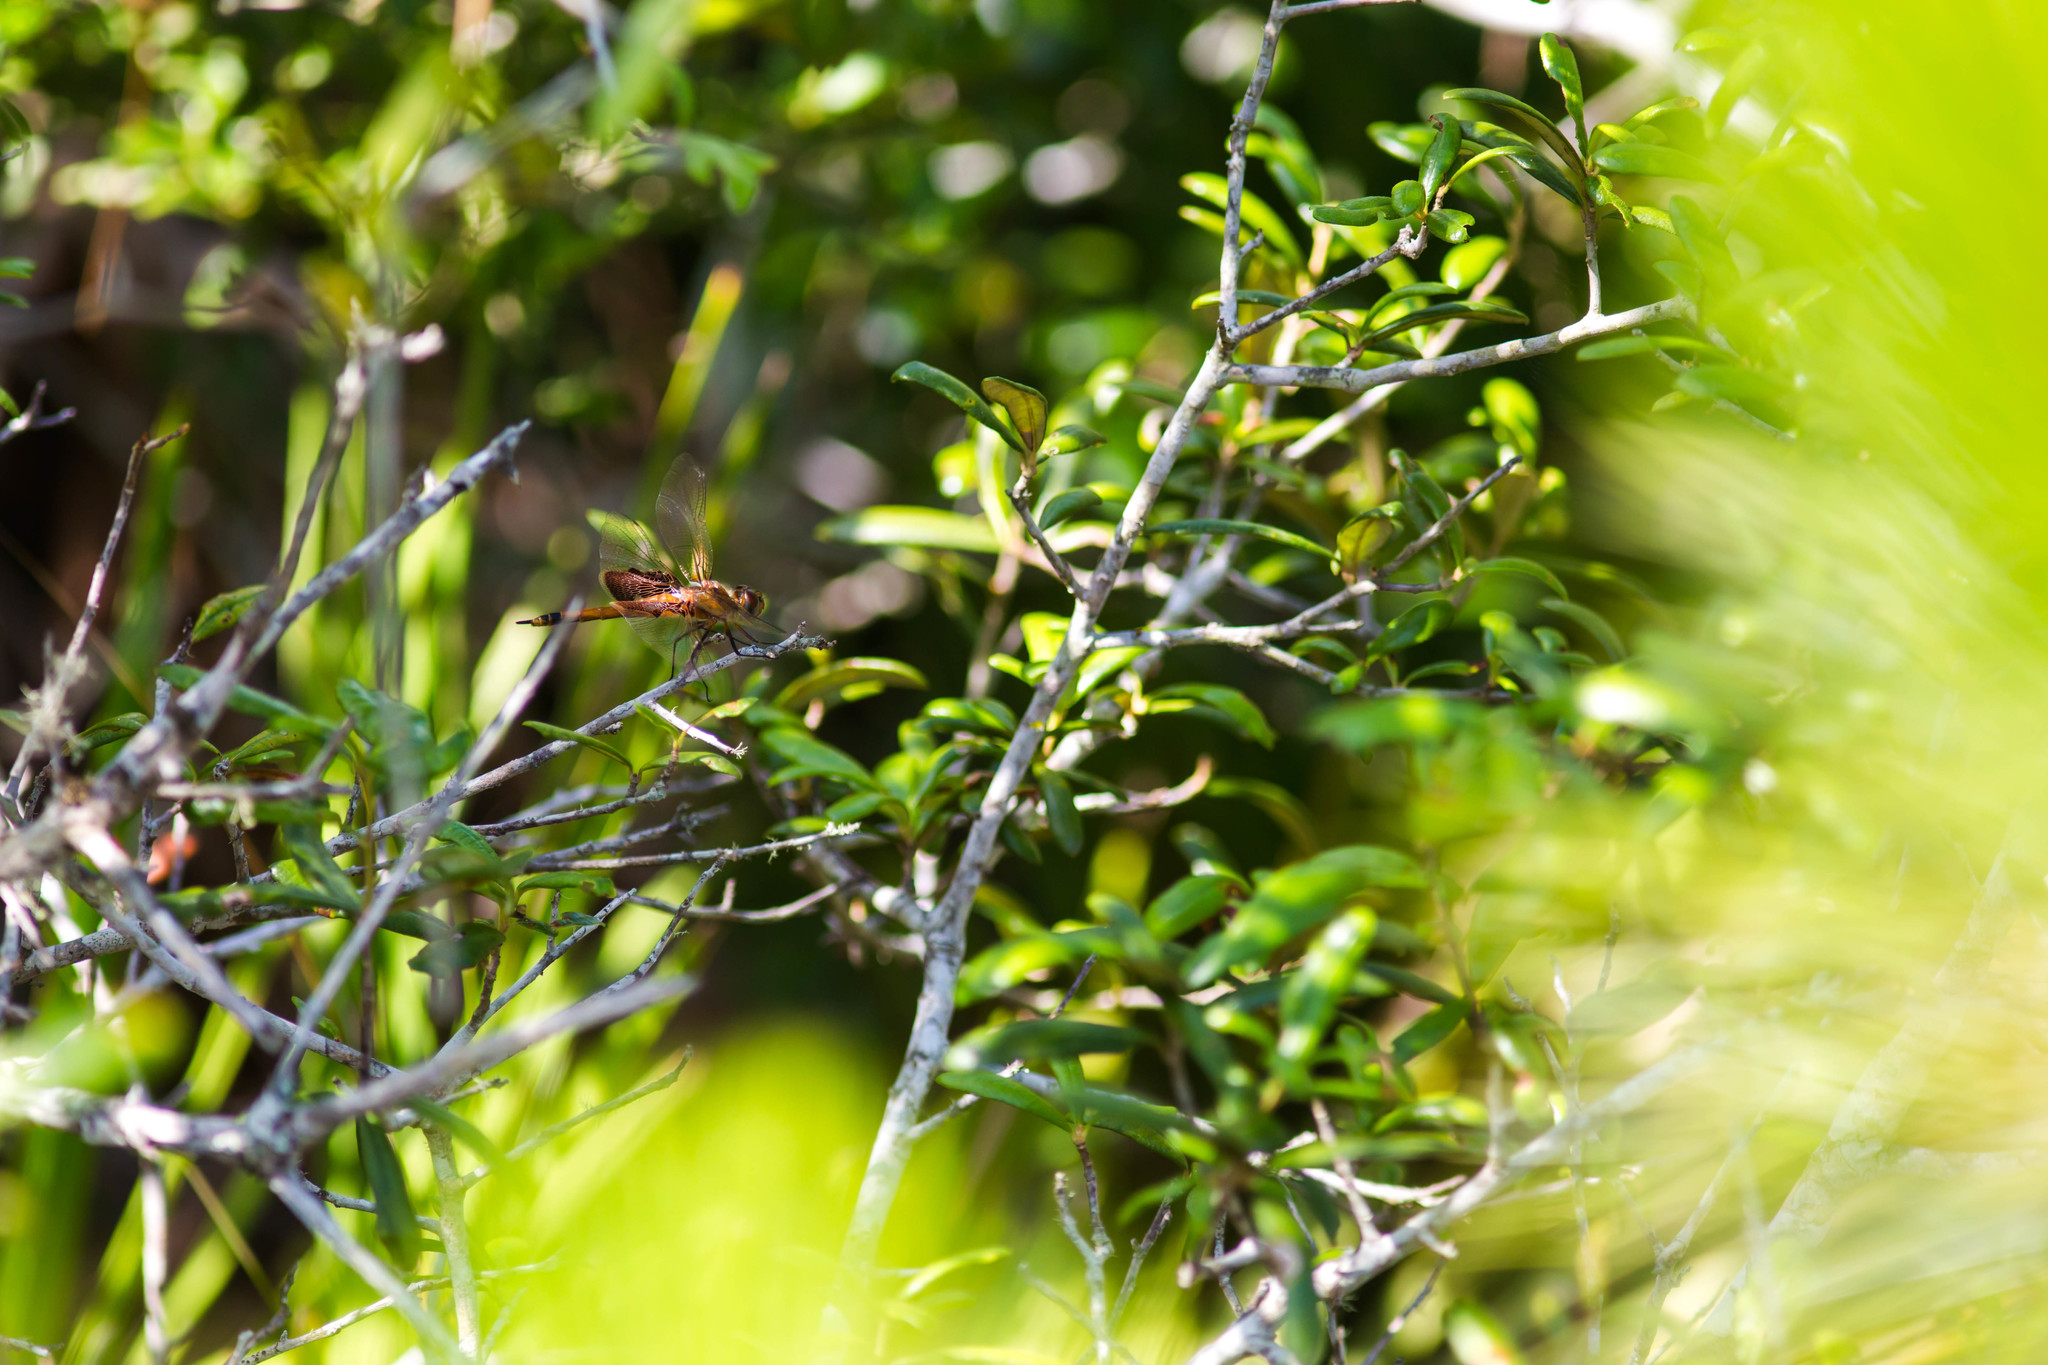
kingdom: Animalia
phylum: Arthropoda
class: Insecta
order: Odonata
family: Libellulidae
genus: Tramea
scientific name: Tramea carolina
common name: Carolina saddlebags
